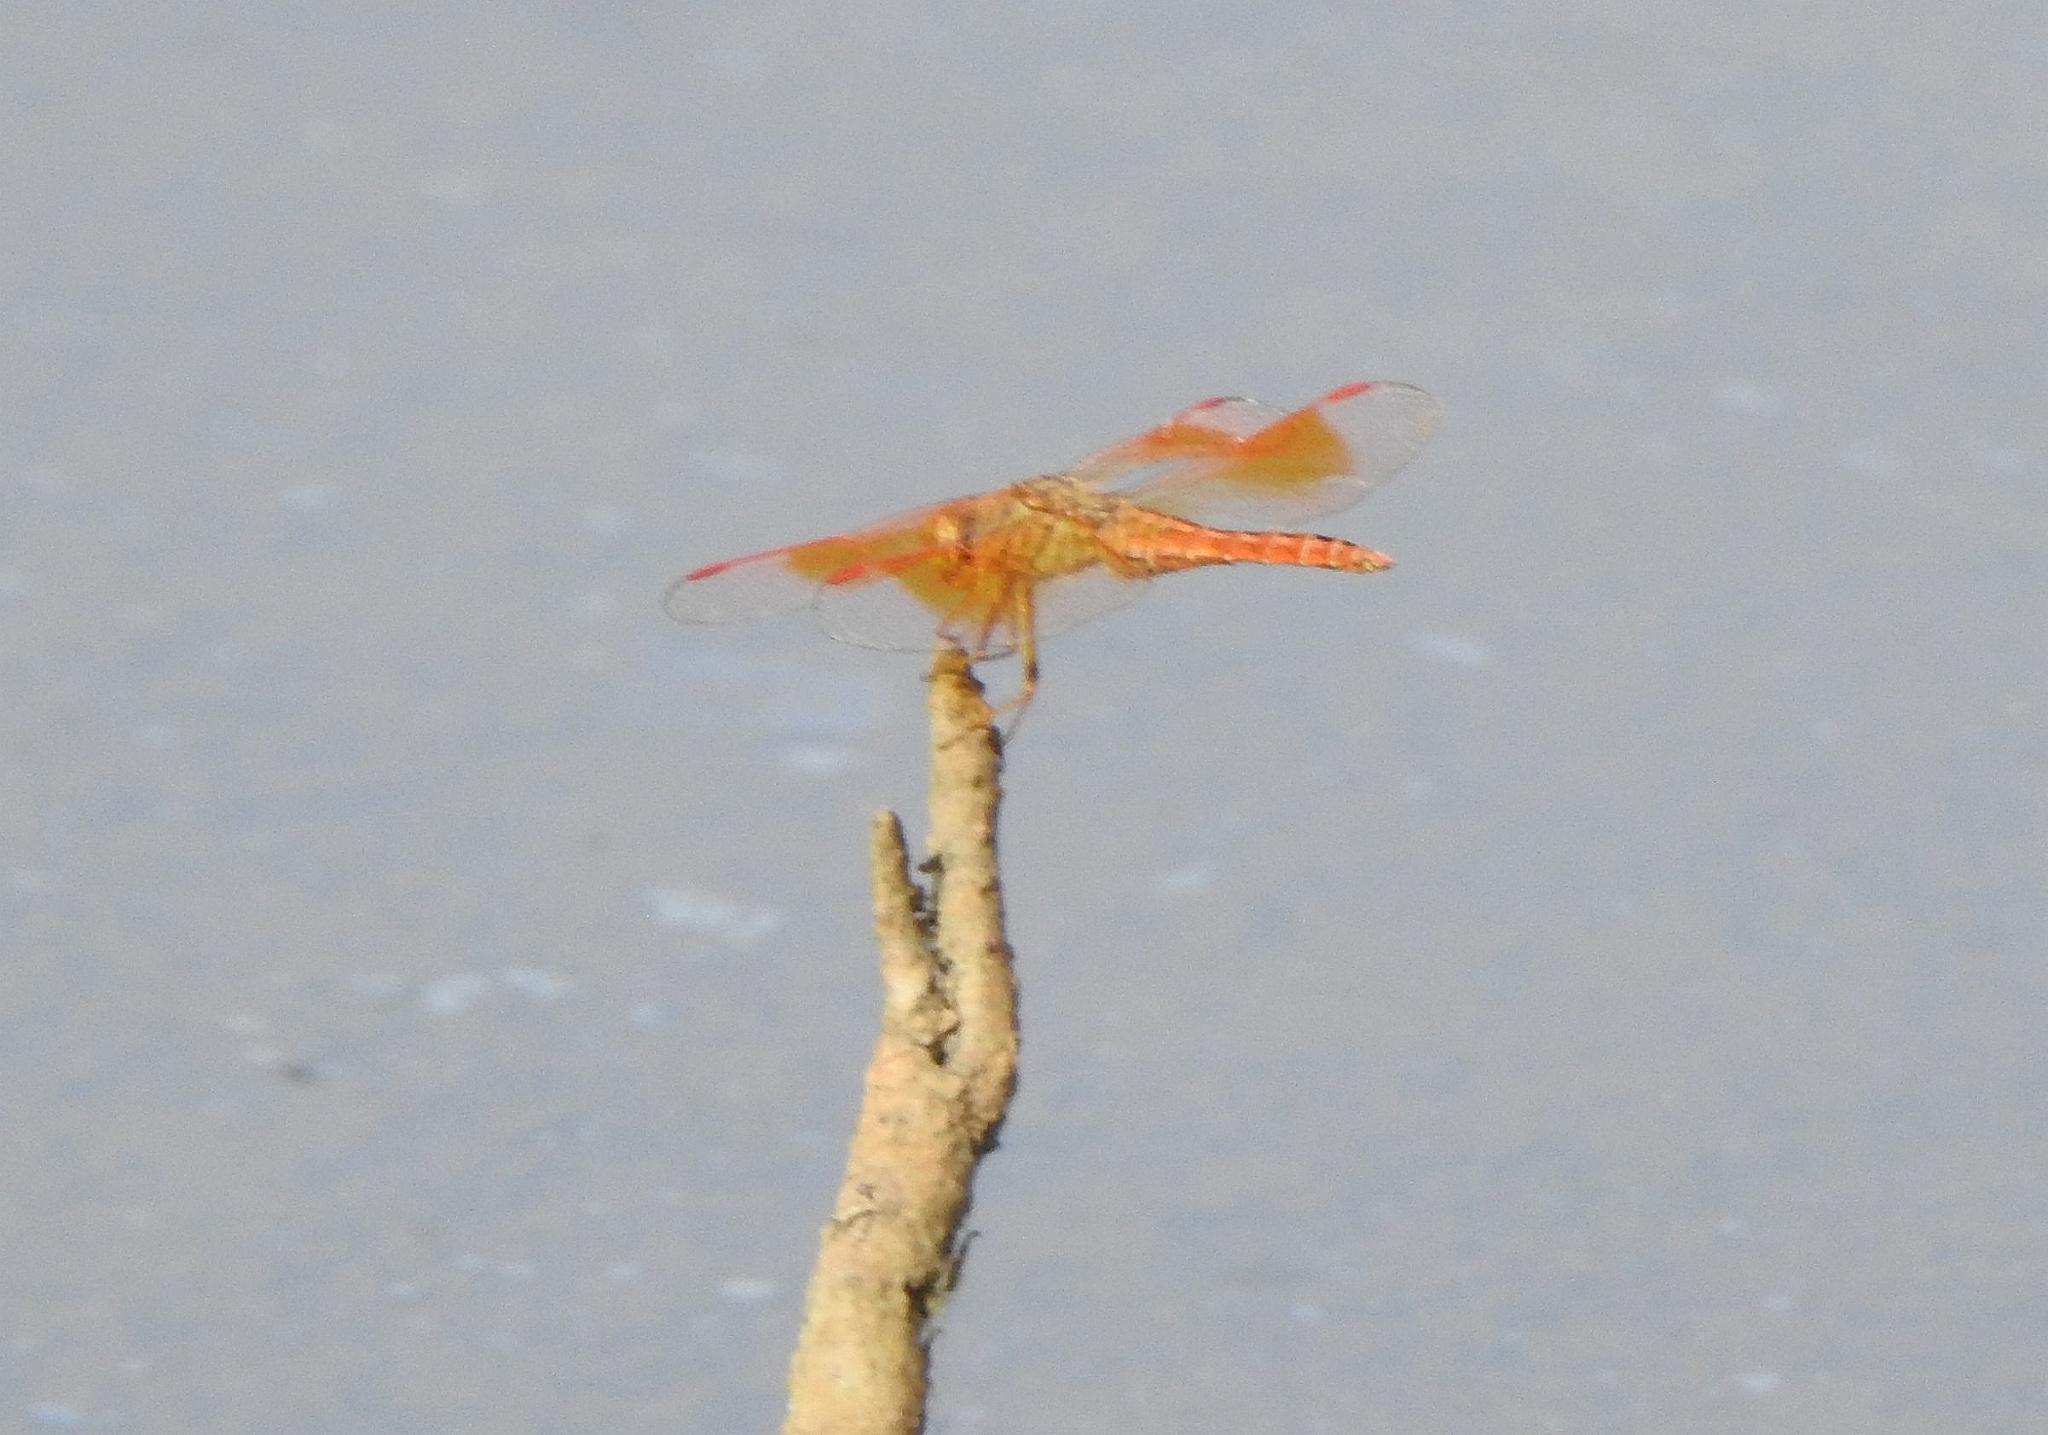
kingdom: Animalia
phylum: Arthropoda
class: Insecta
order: Odonata
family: Libellulidae
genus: Brachythemis
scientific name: Brachythemis contaminata
